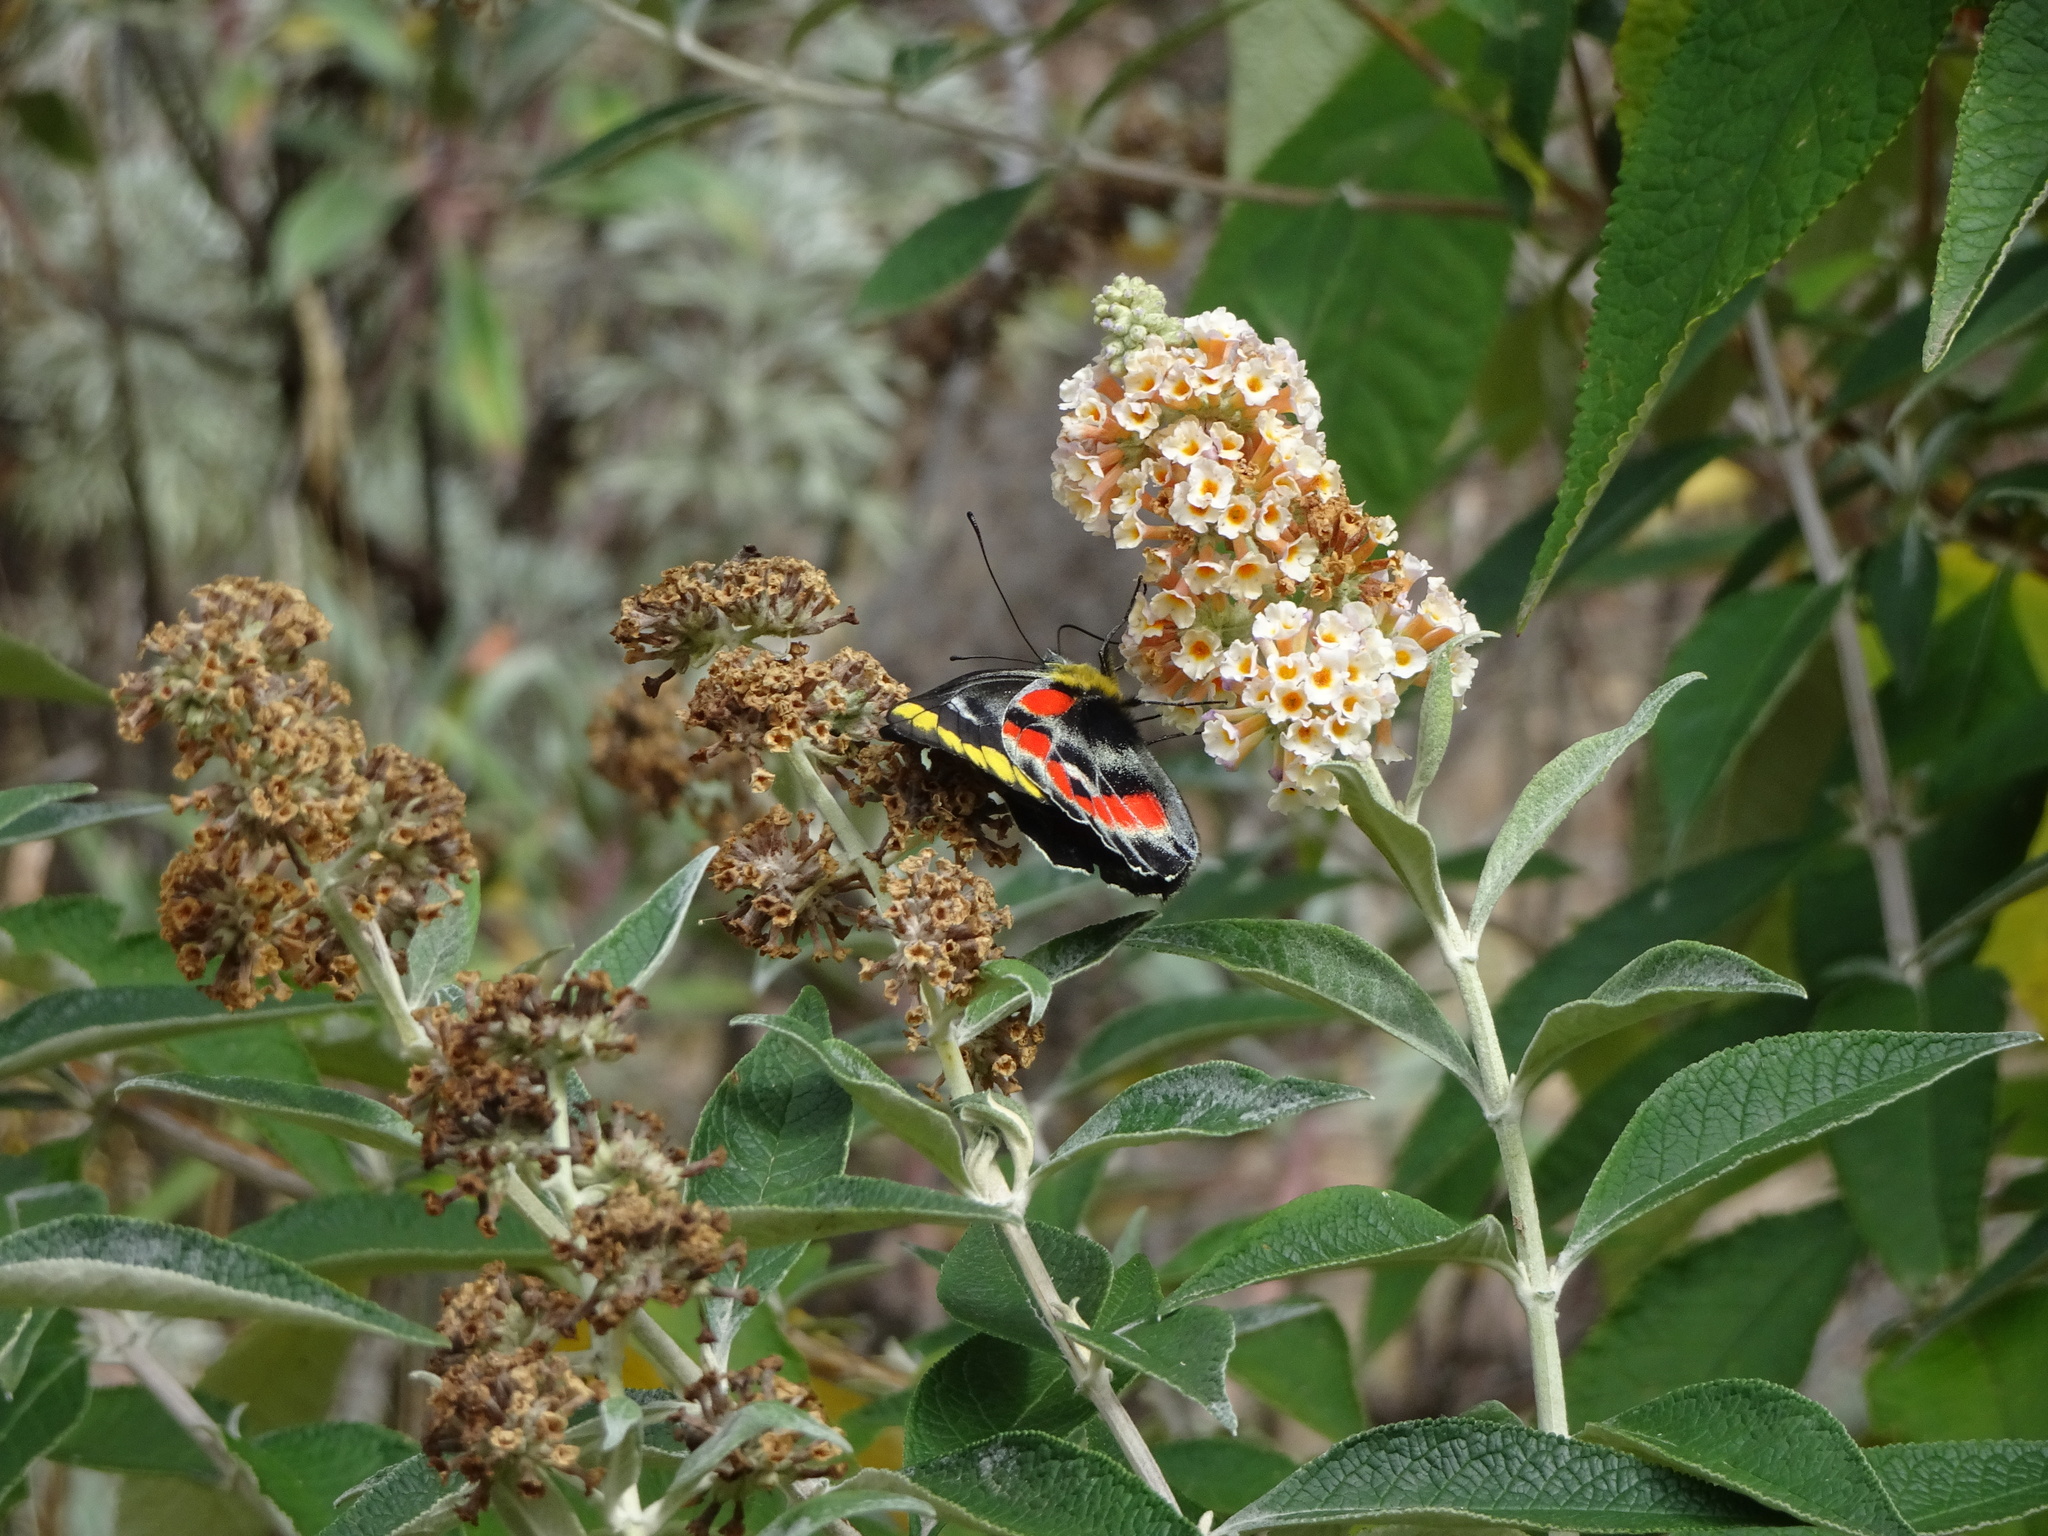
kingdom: Animalia
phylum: Arthropoda
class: Insecta
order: Lepidoptera
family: Pieridae
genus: Delias
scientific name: Delias harpalyce
